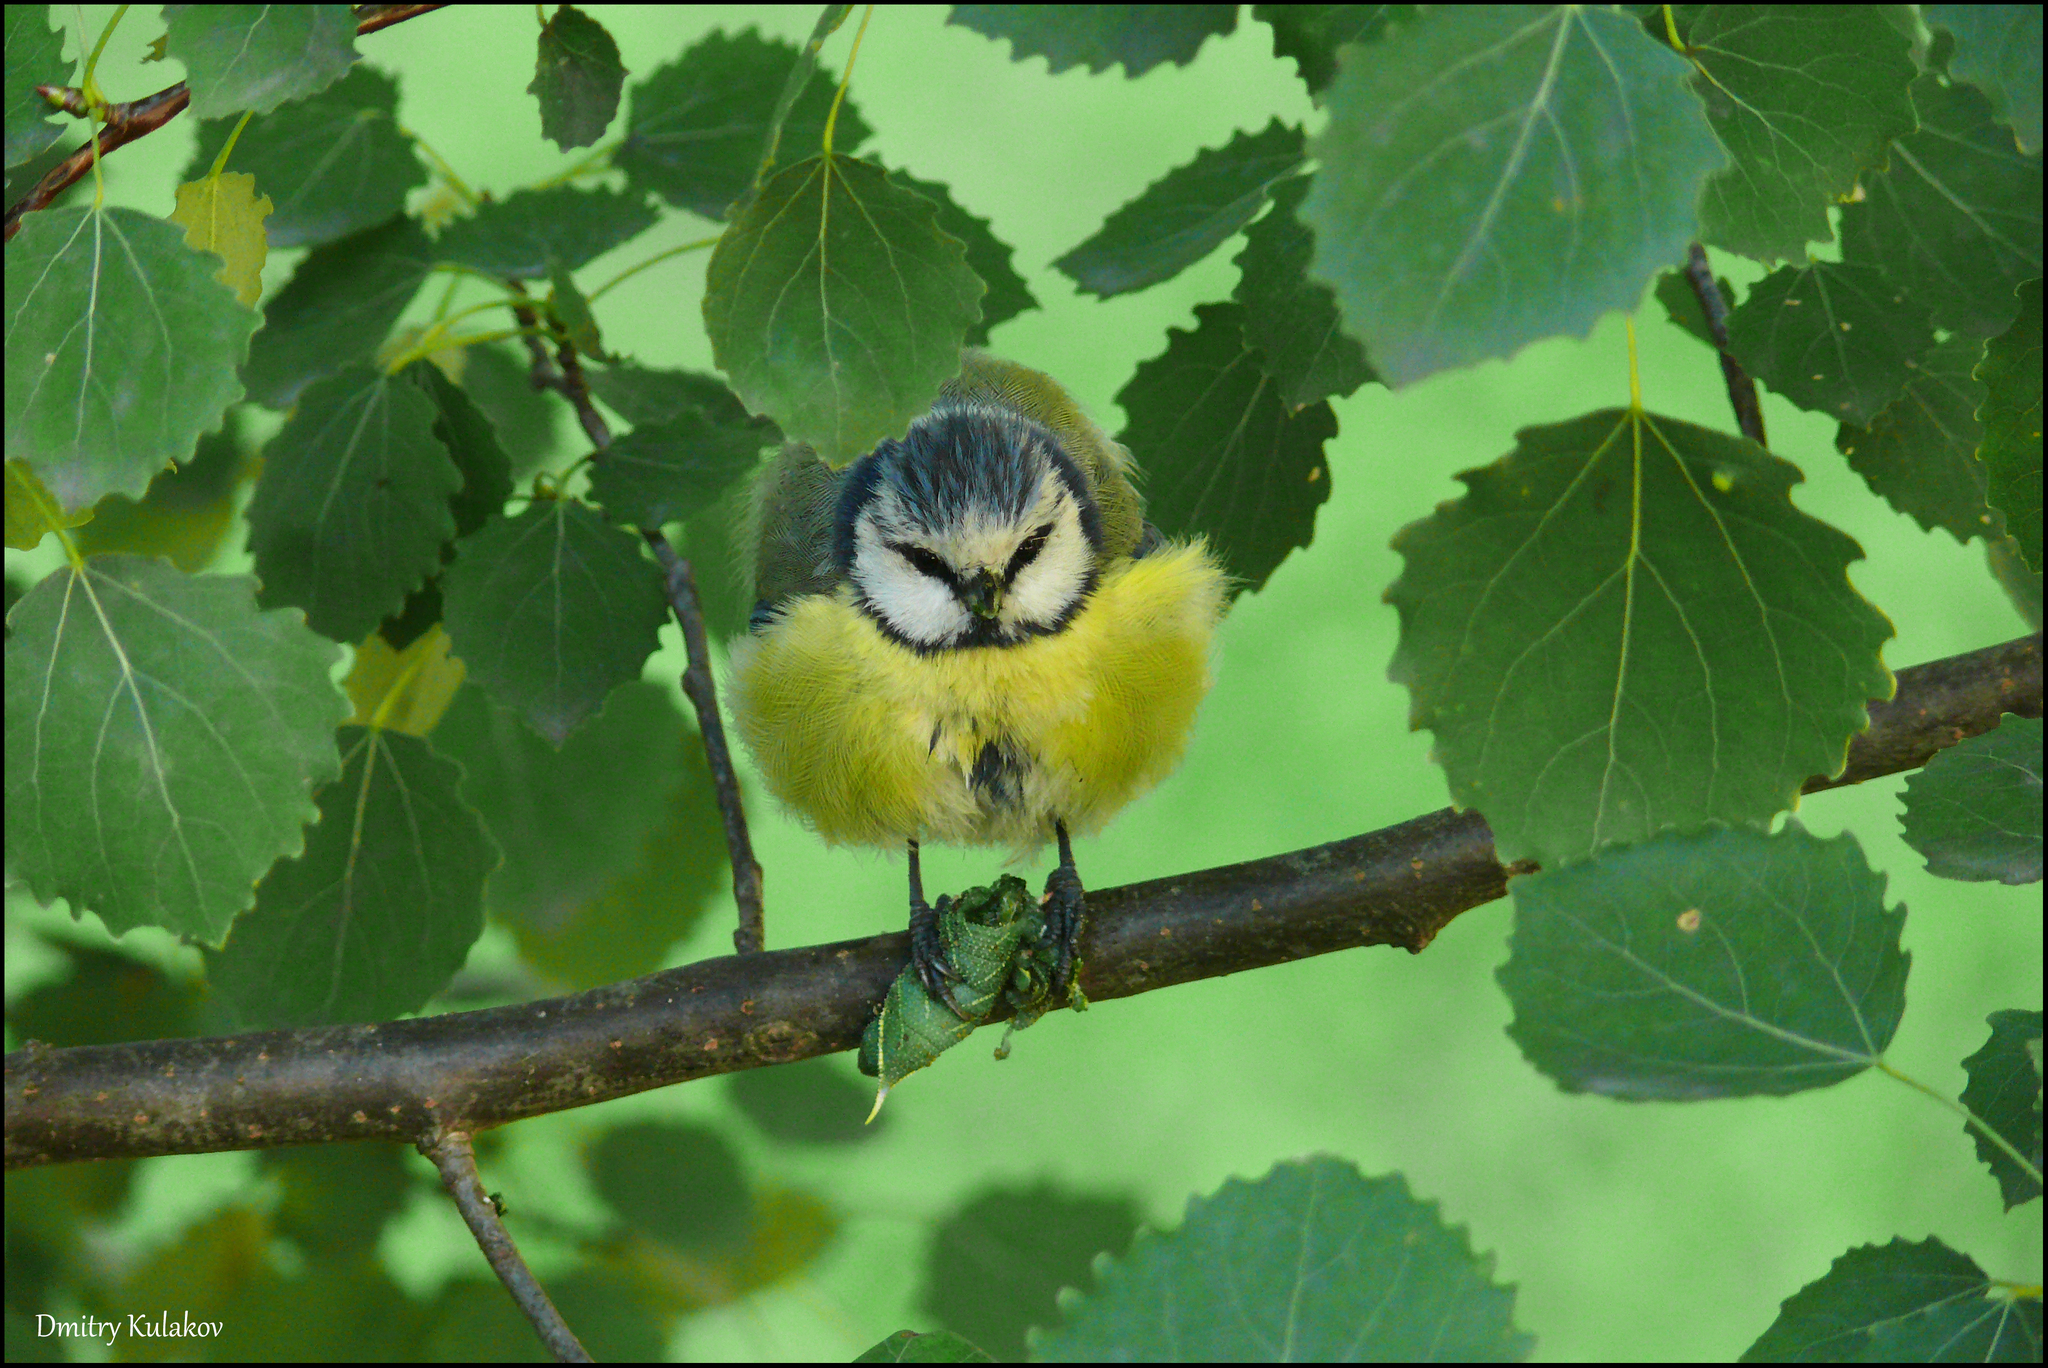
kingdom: Animalia
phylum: Chordata
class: Aves
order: Passeriformes
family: Paridae
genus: Cyanistes
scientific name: Cyanistes caeruleus
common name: Eurasian blue tit
